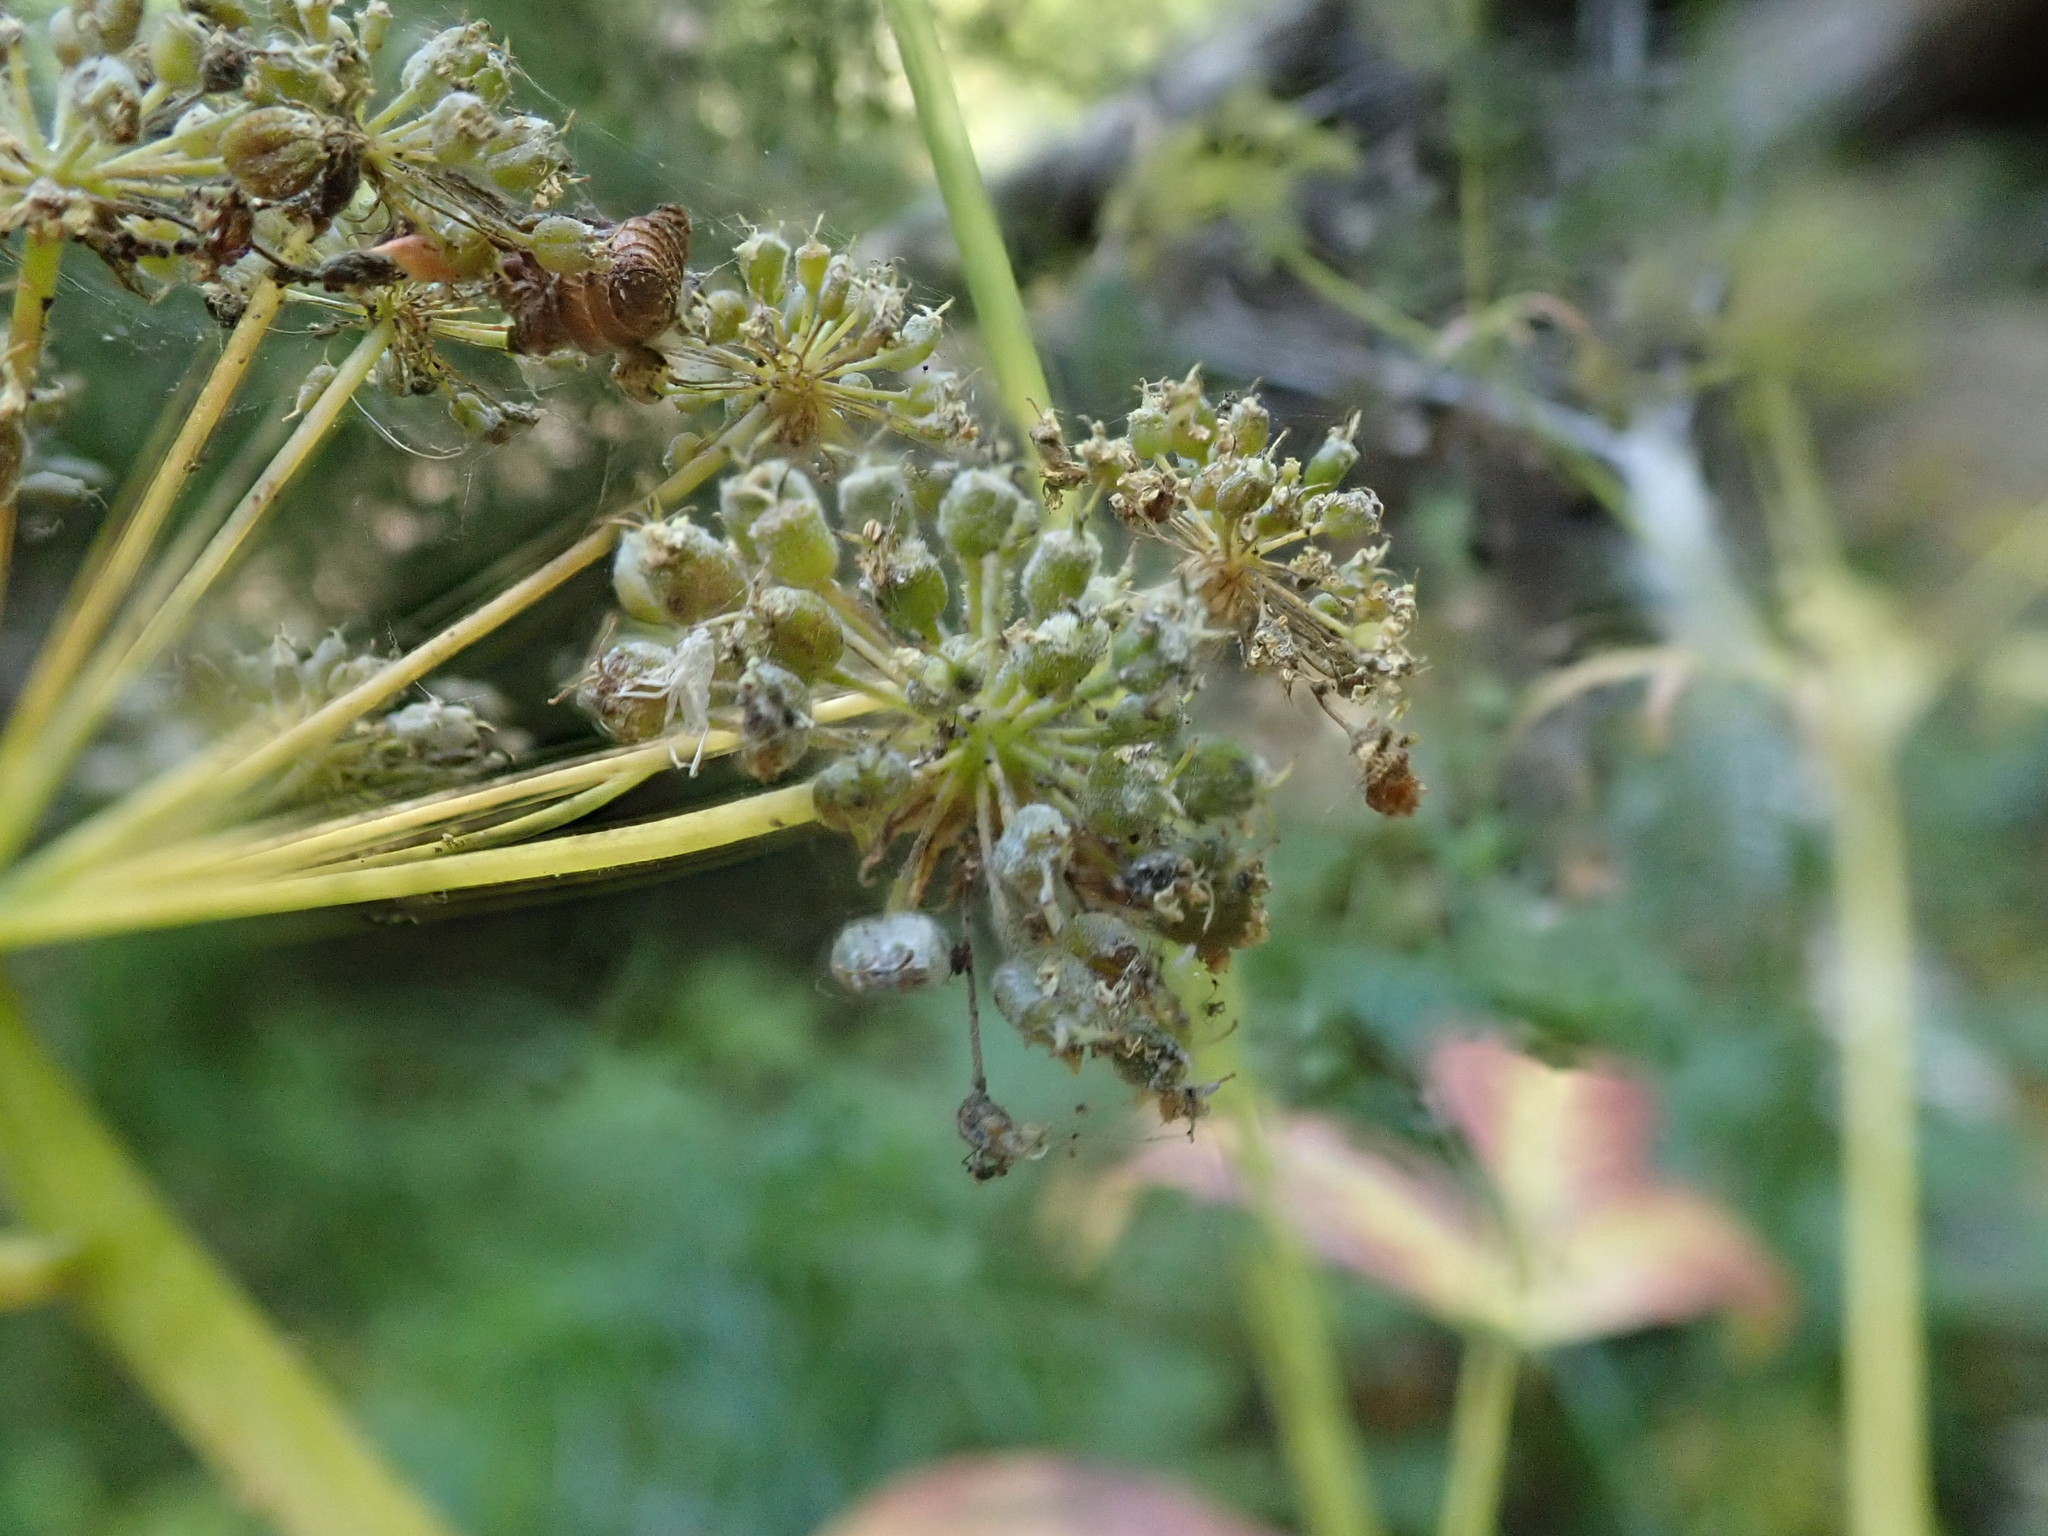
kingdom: Plantae
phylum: Tracheophyta
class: Magnoliopsida
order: Apiales
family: Apiaceae
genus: Cicuta
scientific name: Cicuta douglasii
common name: Western water-hemlock
